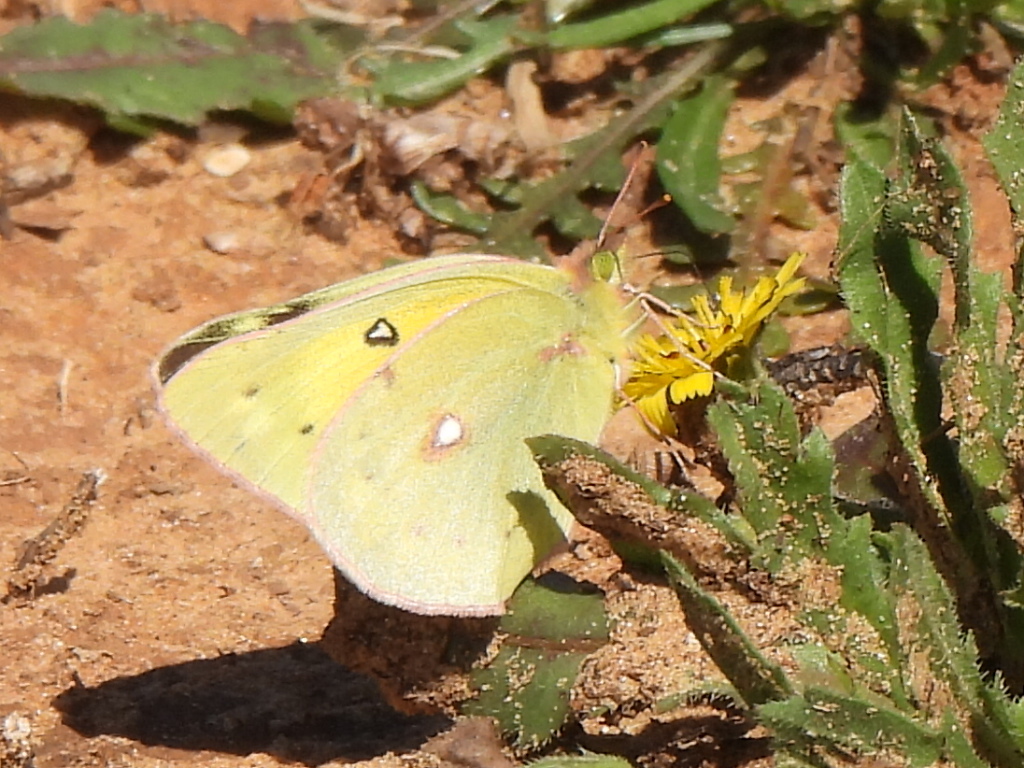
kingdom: Animalia
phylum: Arthropoda
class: Insecta
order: Lepidoptera
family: Pieridae
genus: Colias
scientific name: Colias eurytheme
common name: Alfalfa butterfly
